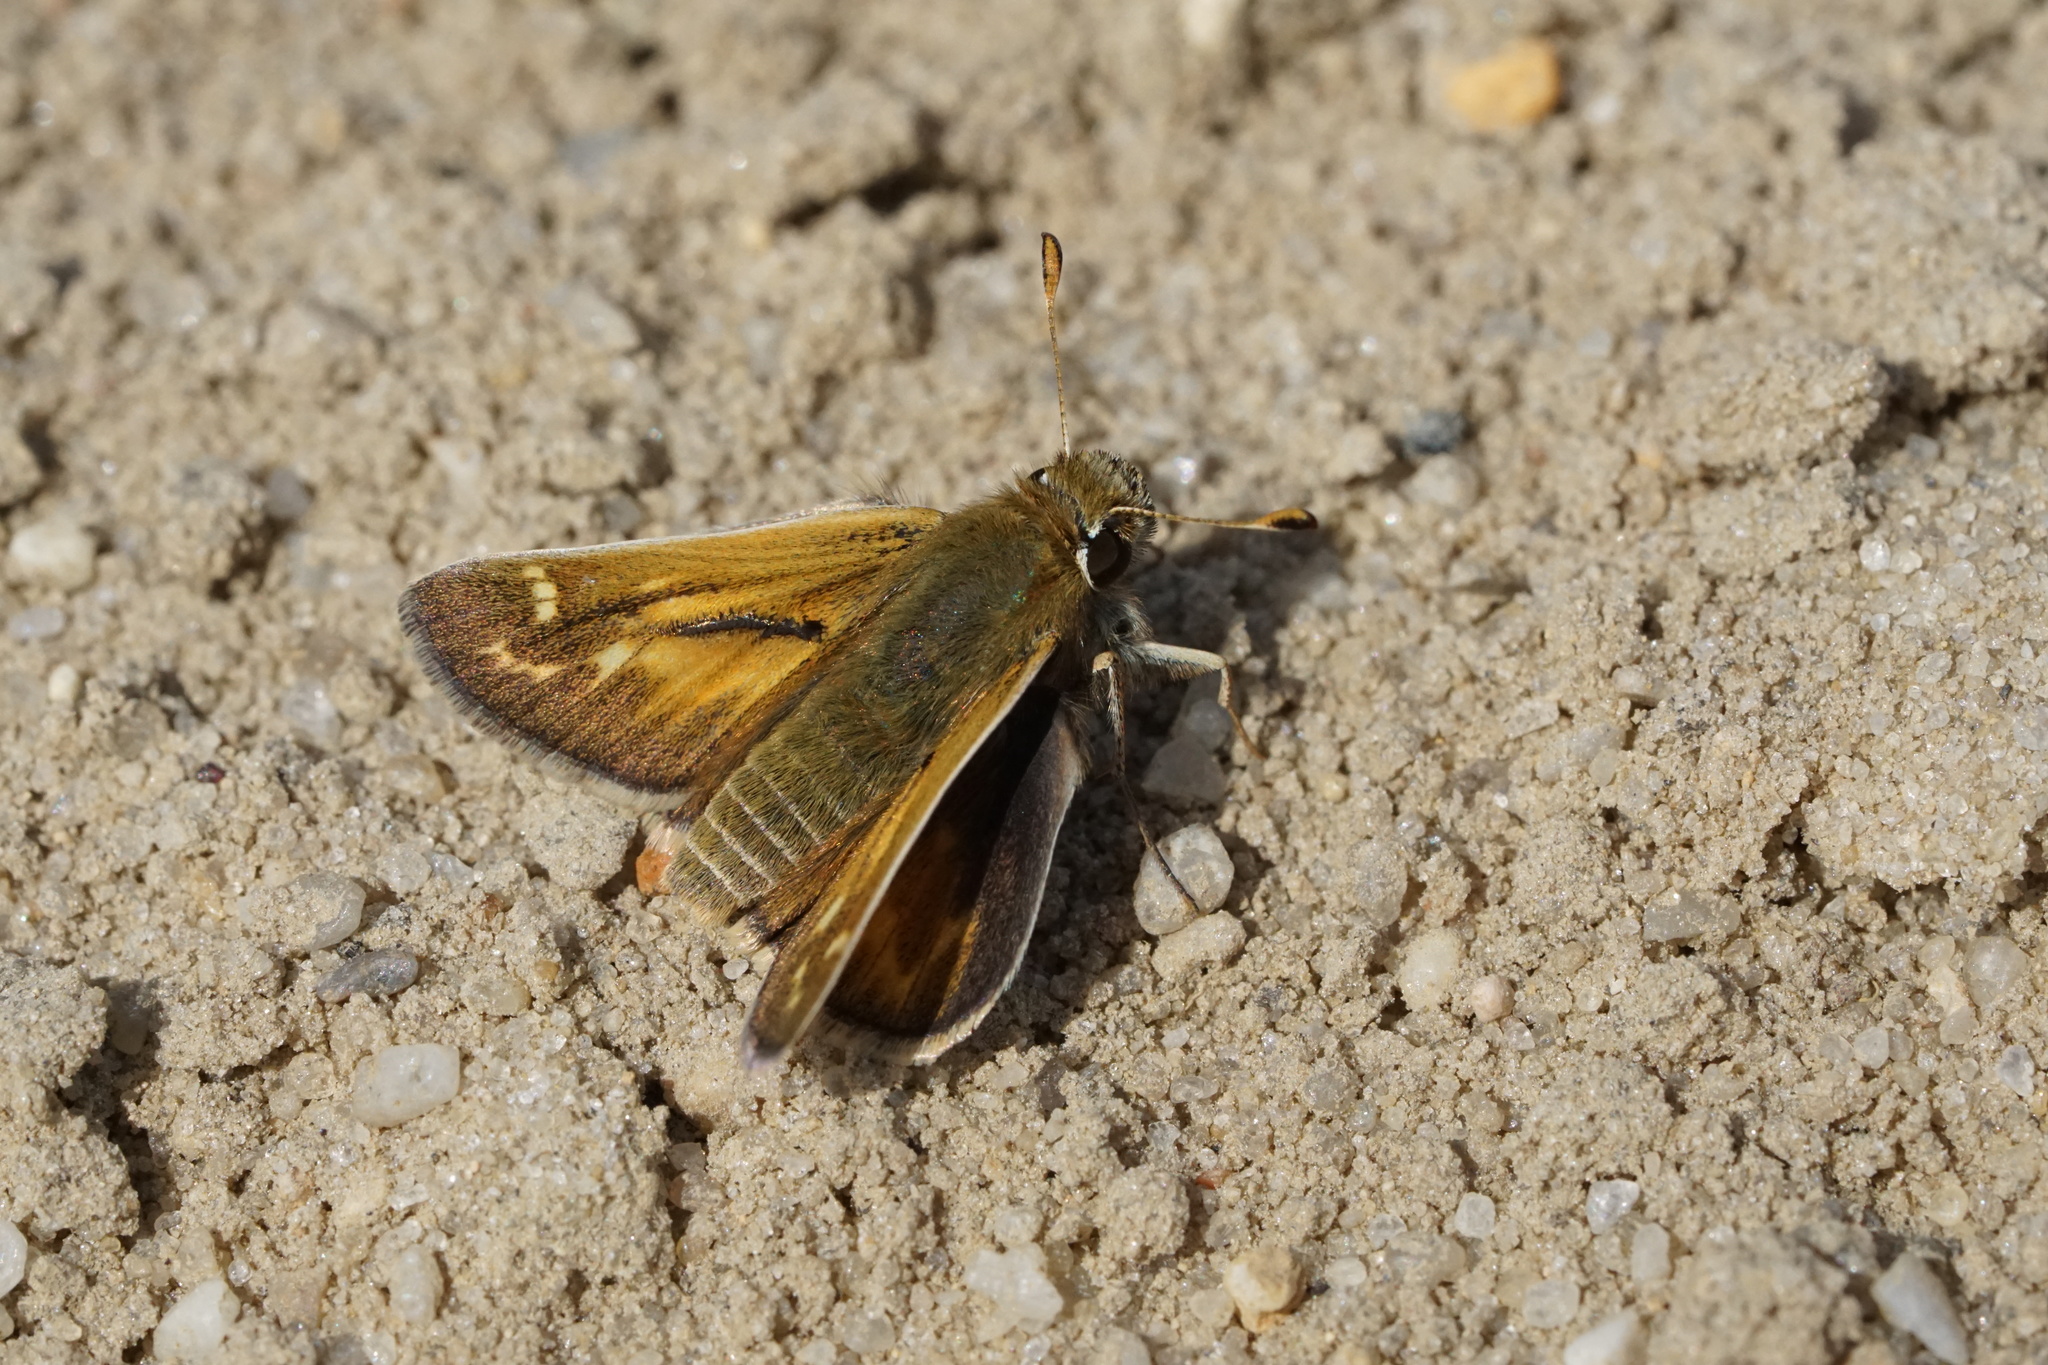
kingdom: Animalia
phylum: Arthropoda
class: Insecta
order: Lepidoptera
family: Hesperiidae
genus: Hesperia
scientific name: Hesperia metea
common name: Cobweb skipper
